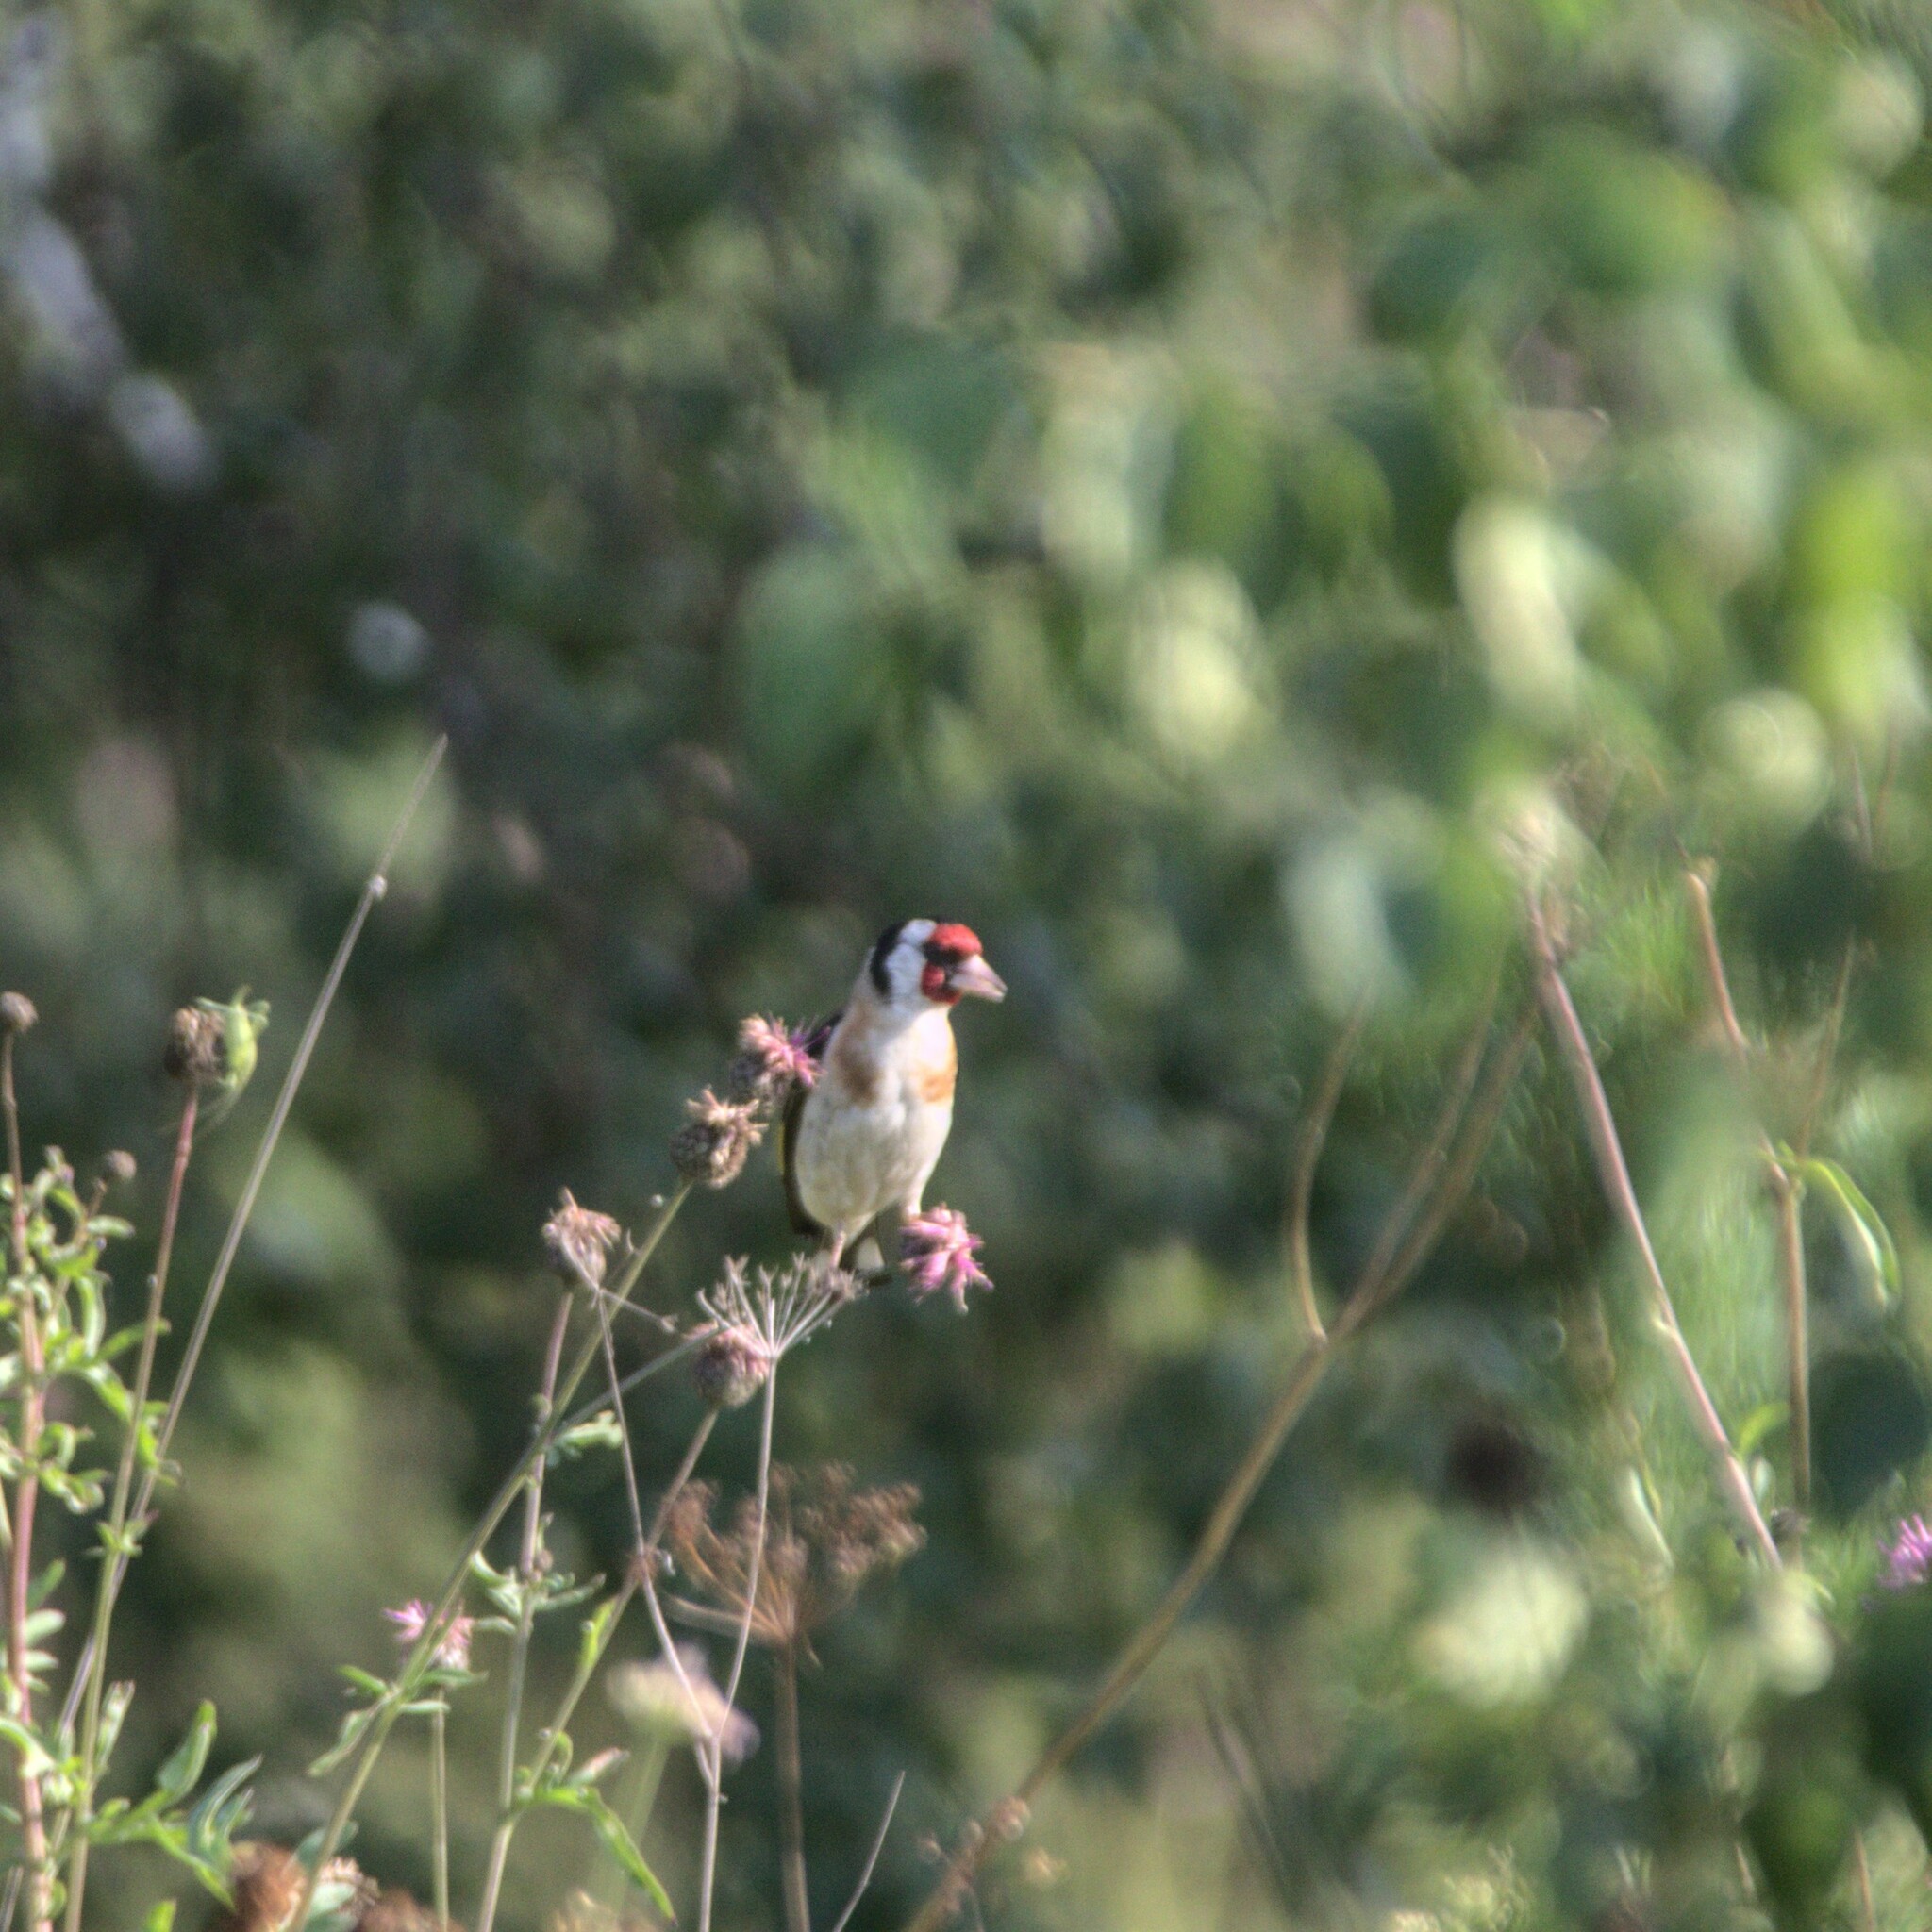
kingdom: Animalia
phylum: Chordata
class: Aves
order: Passeriformes
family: Fringillidae
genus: Carduelis
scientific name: Carduelis carduelis
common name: European goldfinch
